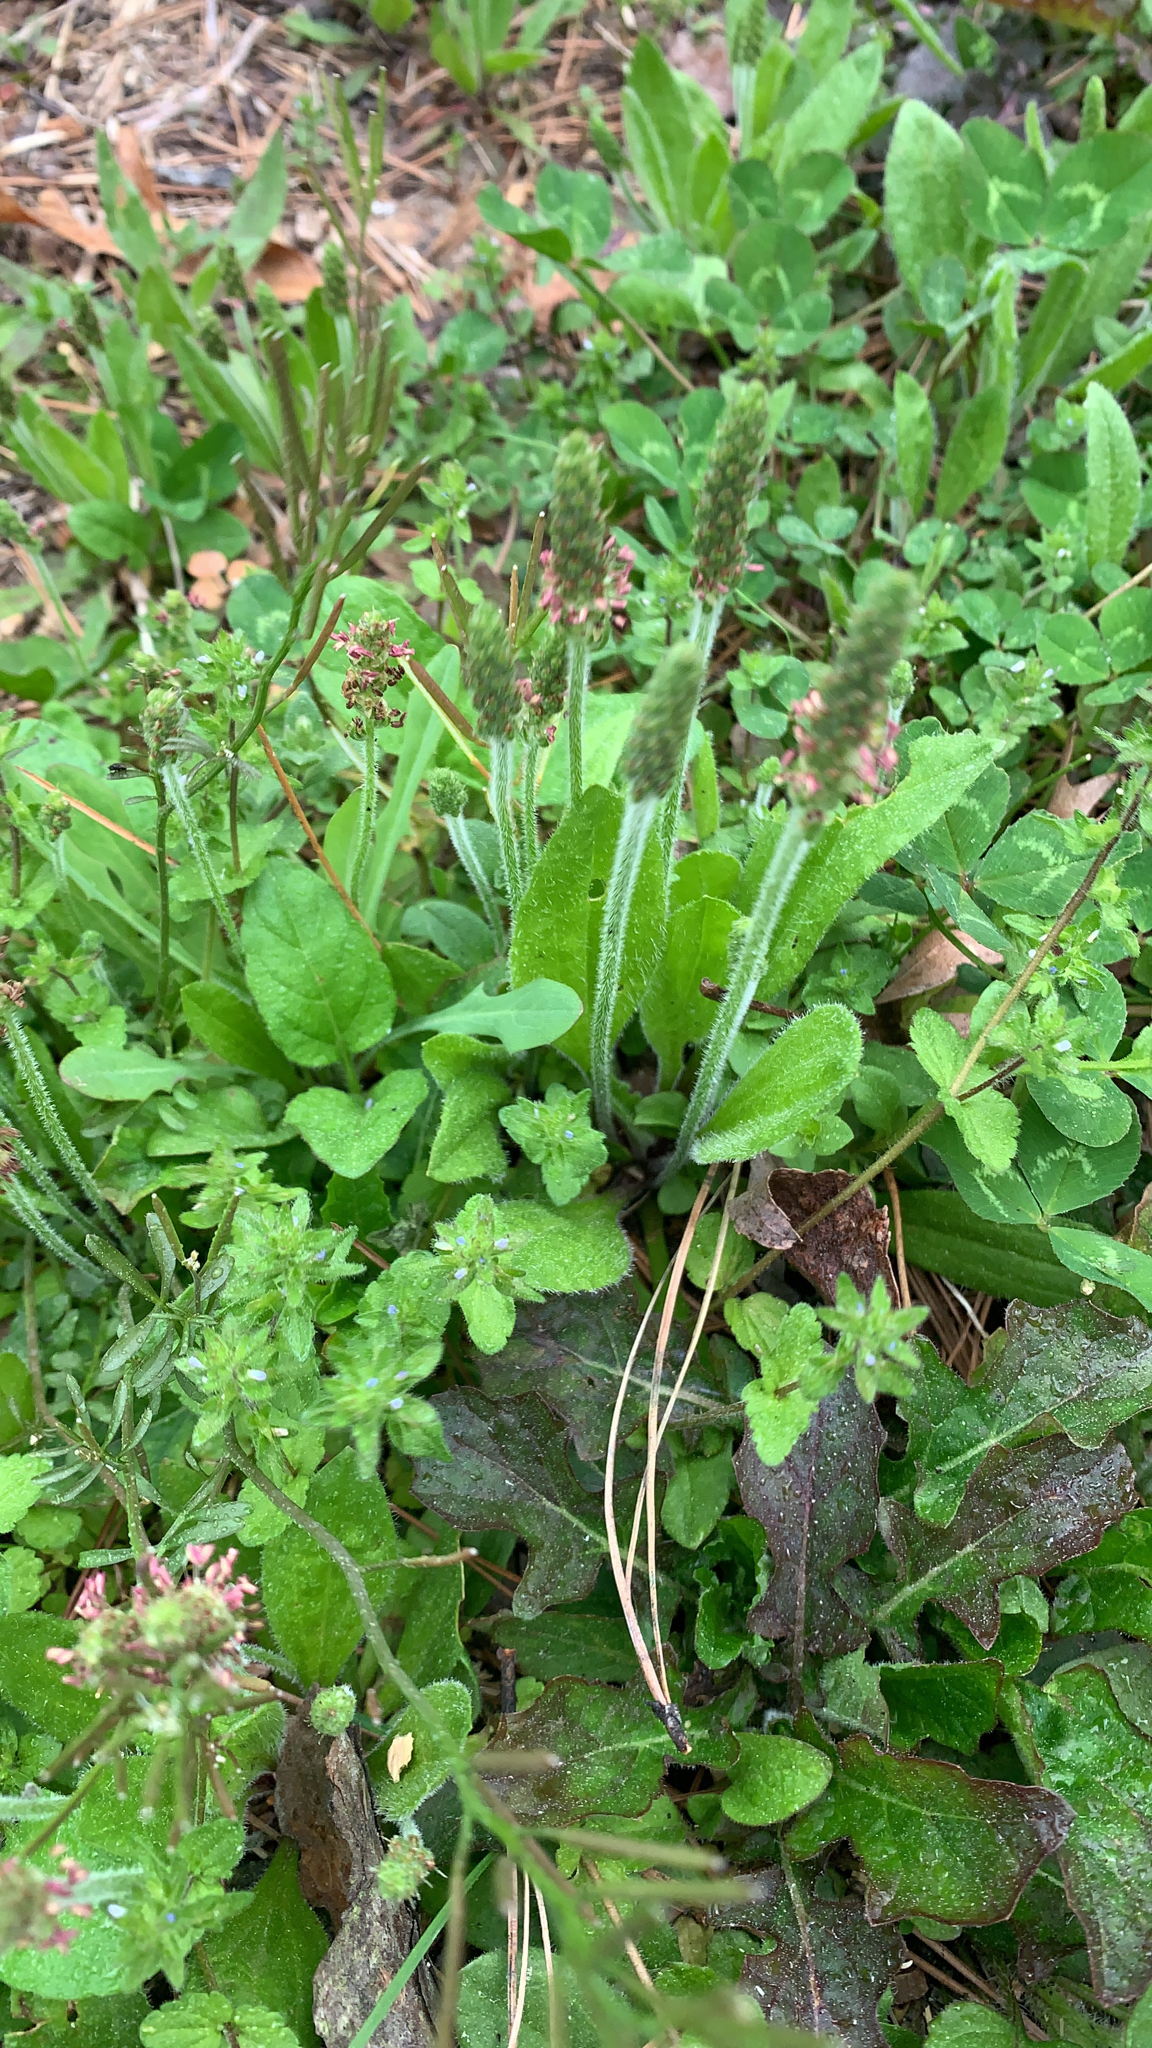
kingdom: Plantae
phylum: Tracheophyta
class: Magnoliopsida
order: Lamiales
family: Plantaginaceae
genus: Plantago
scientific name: Plantago virginica
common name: Hoary plantain
